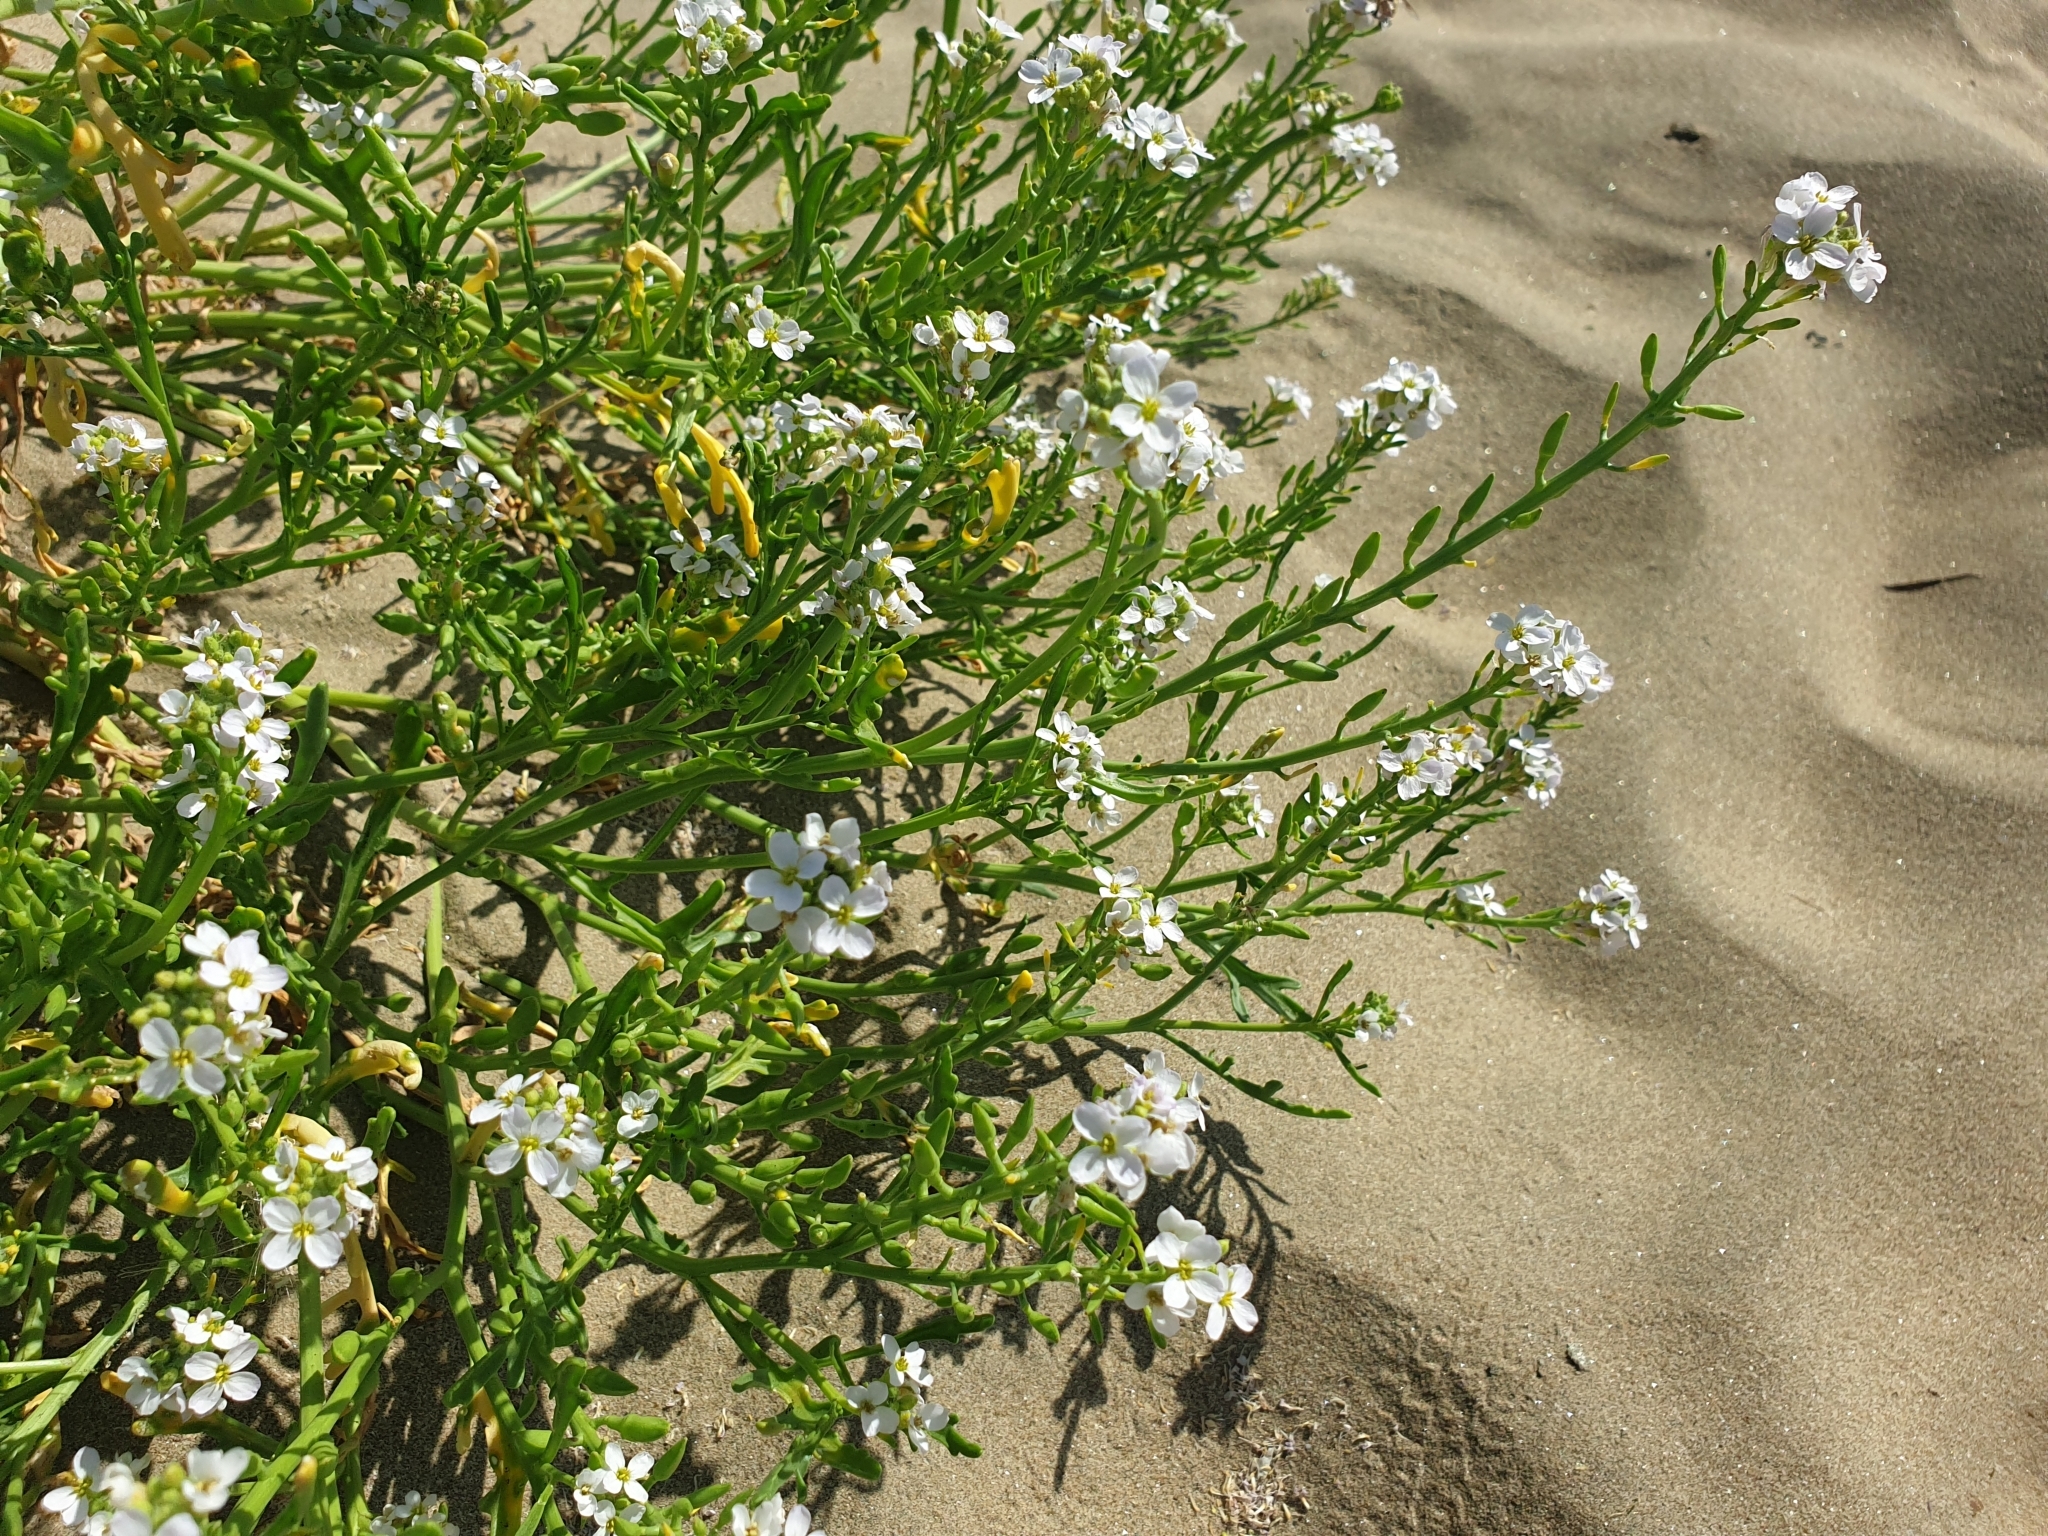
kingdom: Plantae
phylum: Tracheophyta
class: Magnoliopsida
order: Brassicales
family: Brassicaceae
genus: Cakile
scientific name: Cakile maritima
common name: Sea rocket
